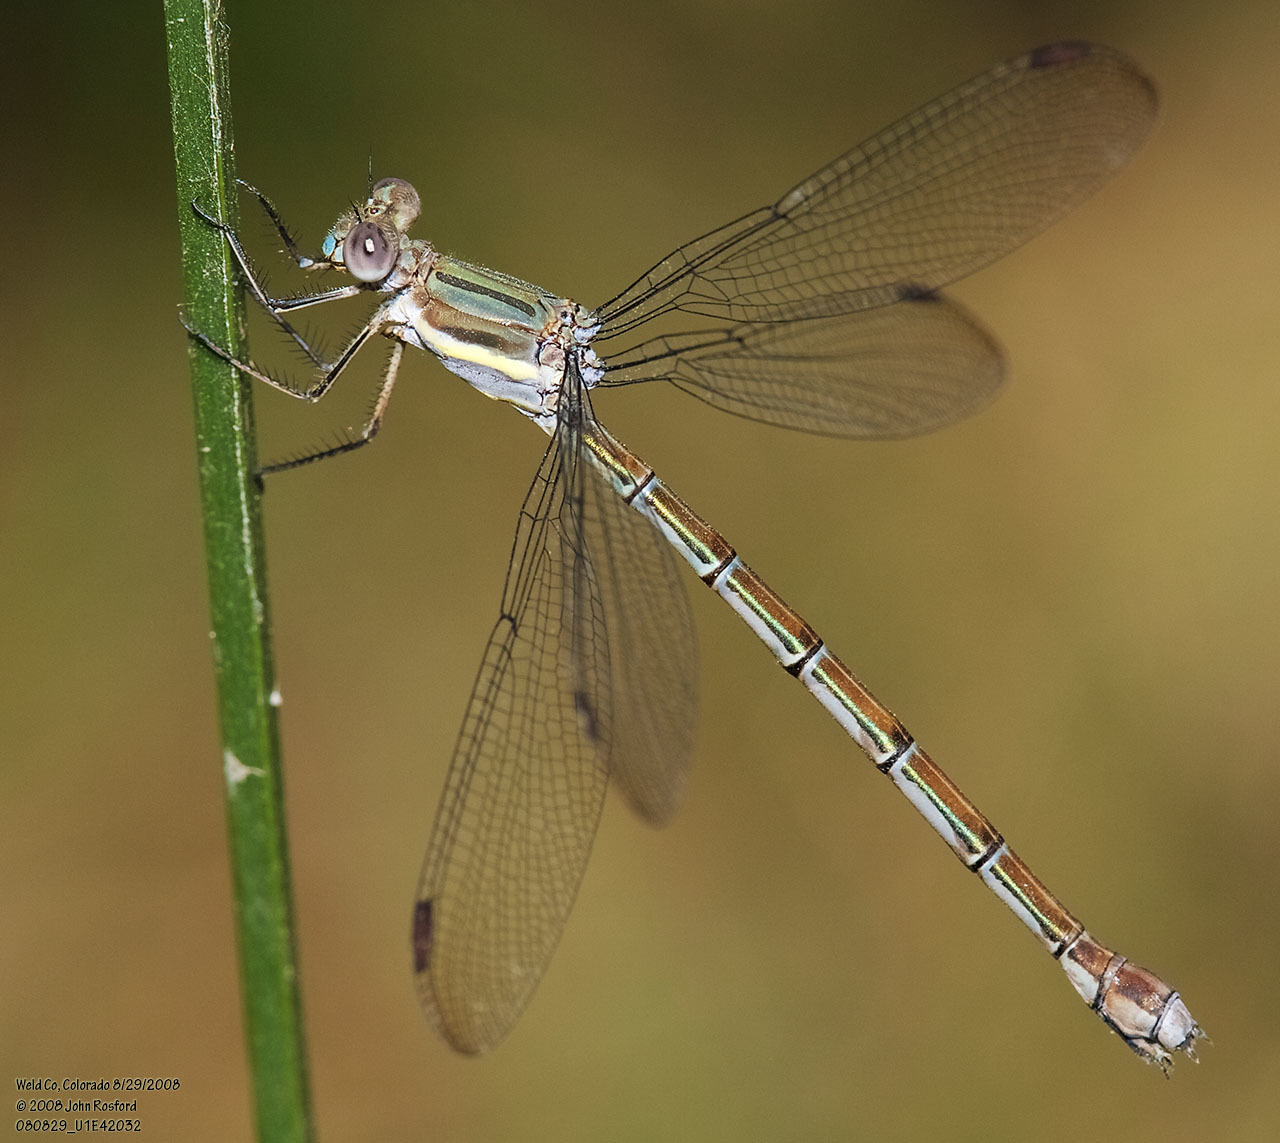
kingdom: Animalia
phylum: Arthropoda
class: Insecta
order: Odonata
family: Lestidae
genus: Archilestes
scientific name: Archilestes grandis
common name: Great spreadwing
